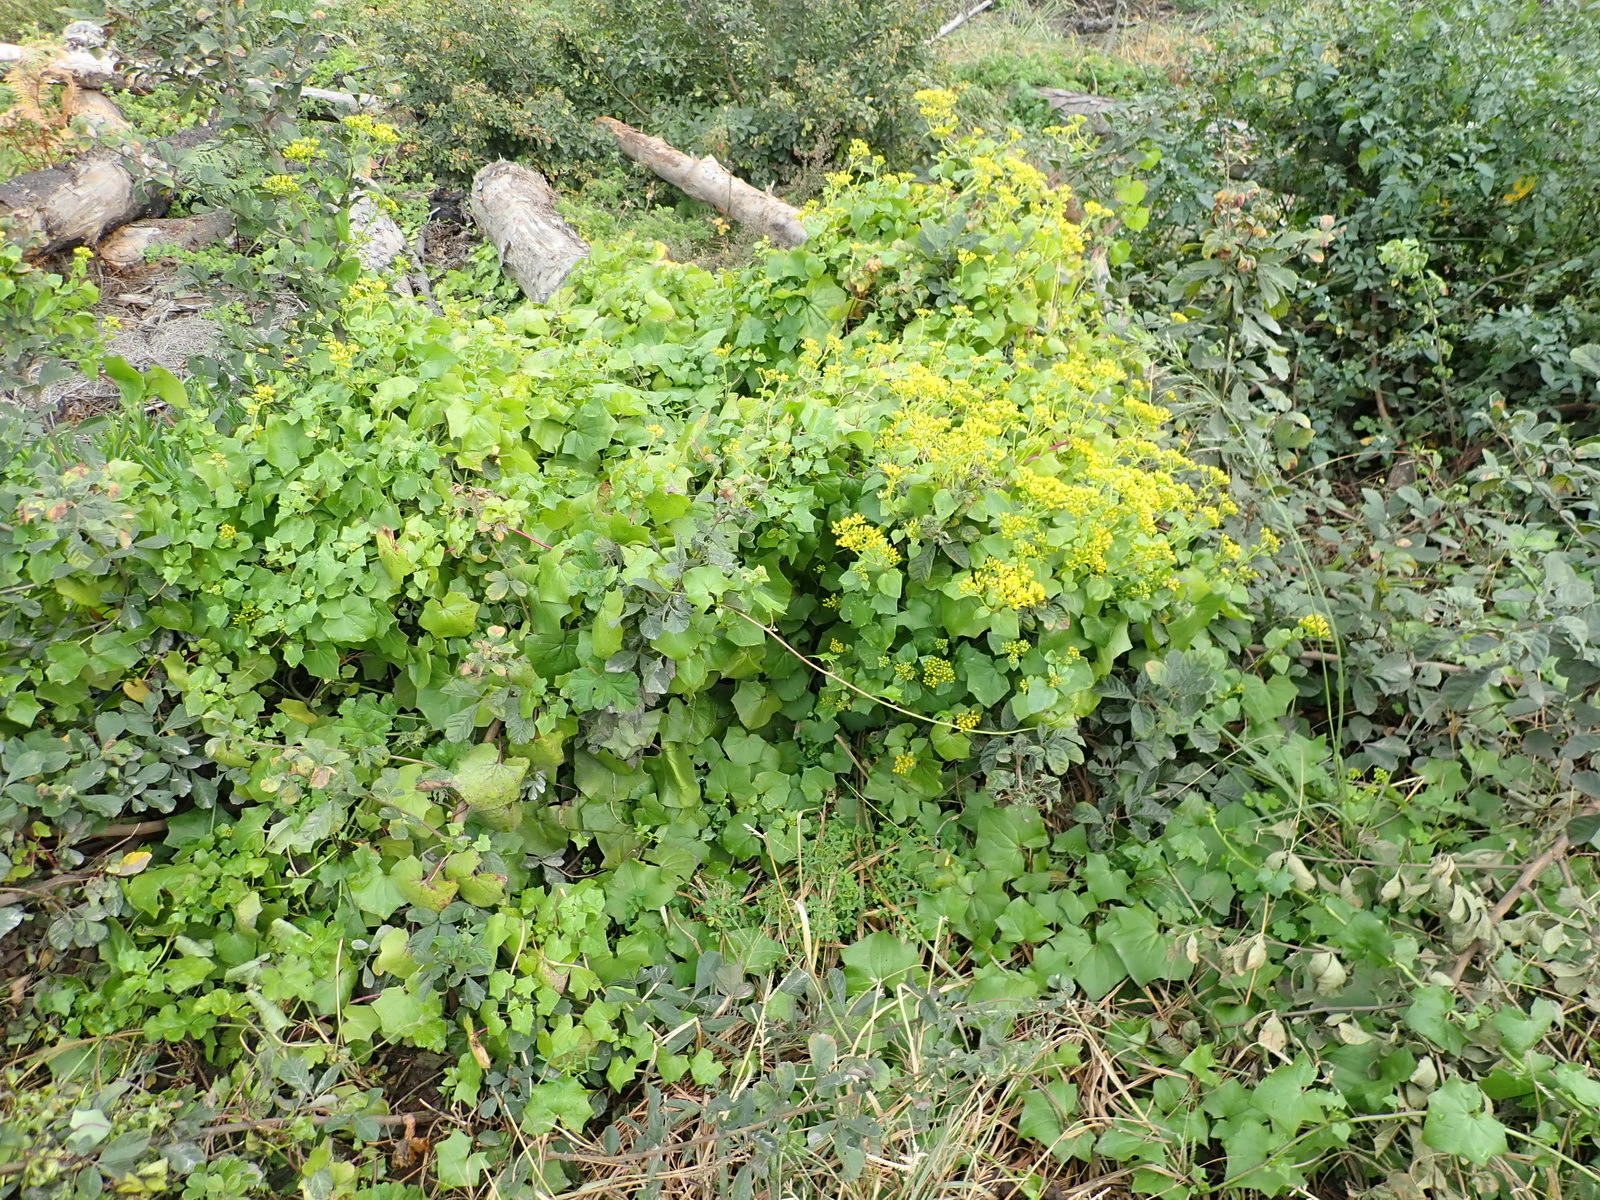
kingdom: Plantae
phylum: Tracheophyta
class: Magnoliopsida
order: Asterales
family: Asteraceae
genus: Delairea
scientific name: Delairea odorata
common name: Cape-ivy
